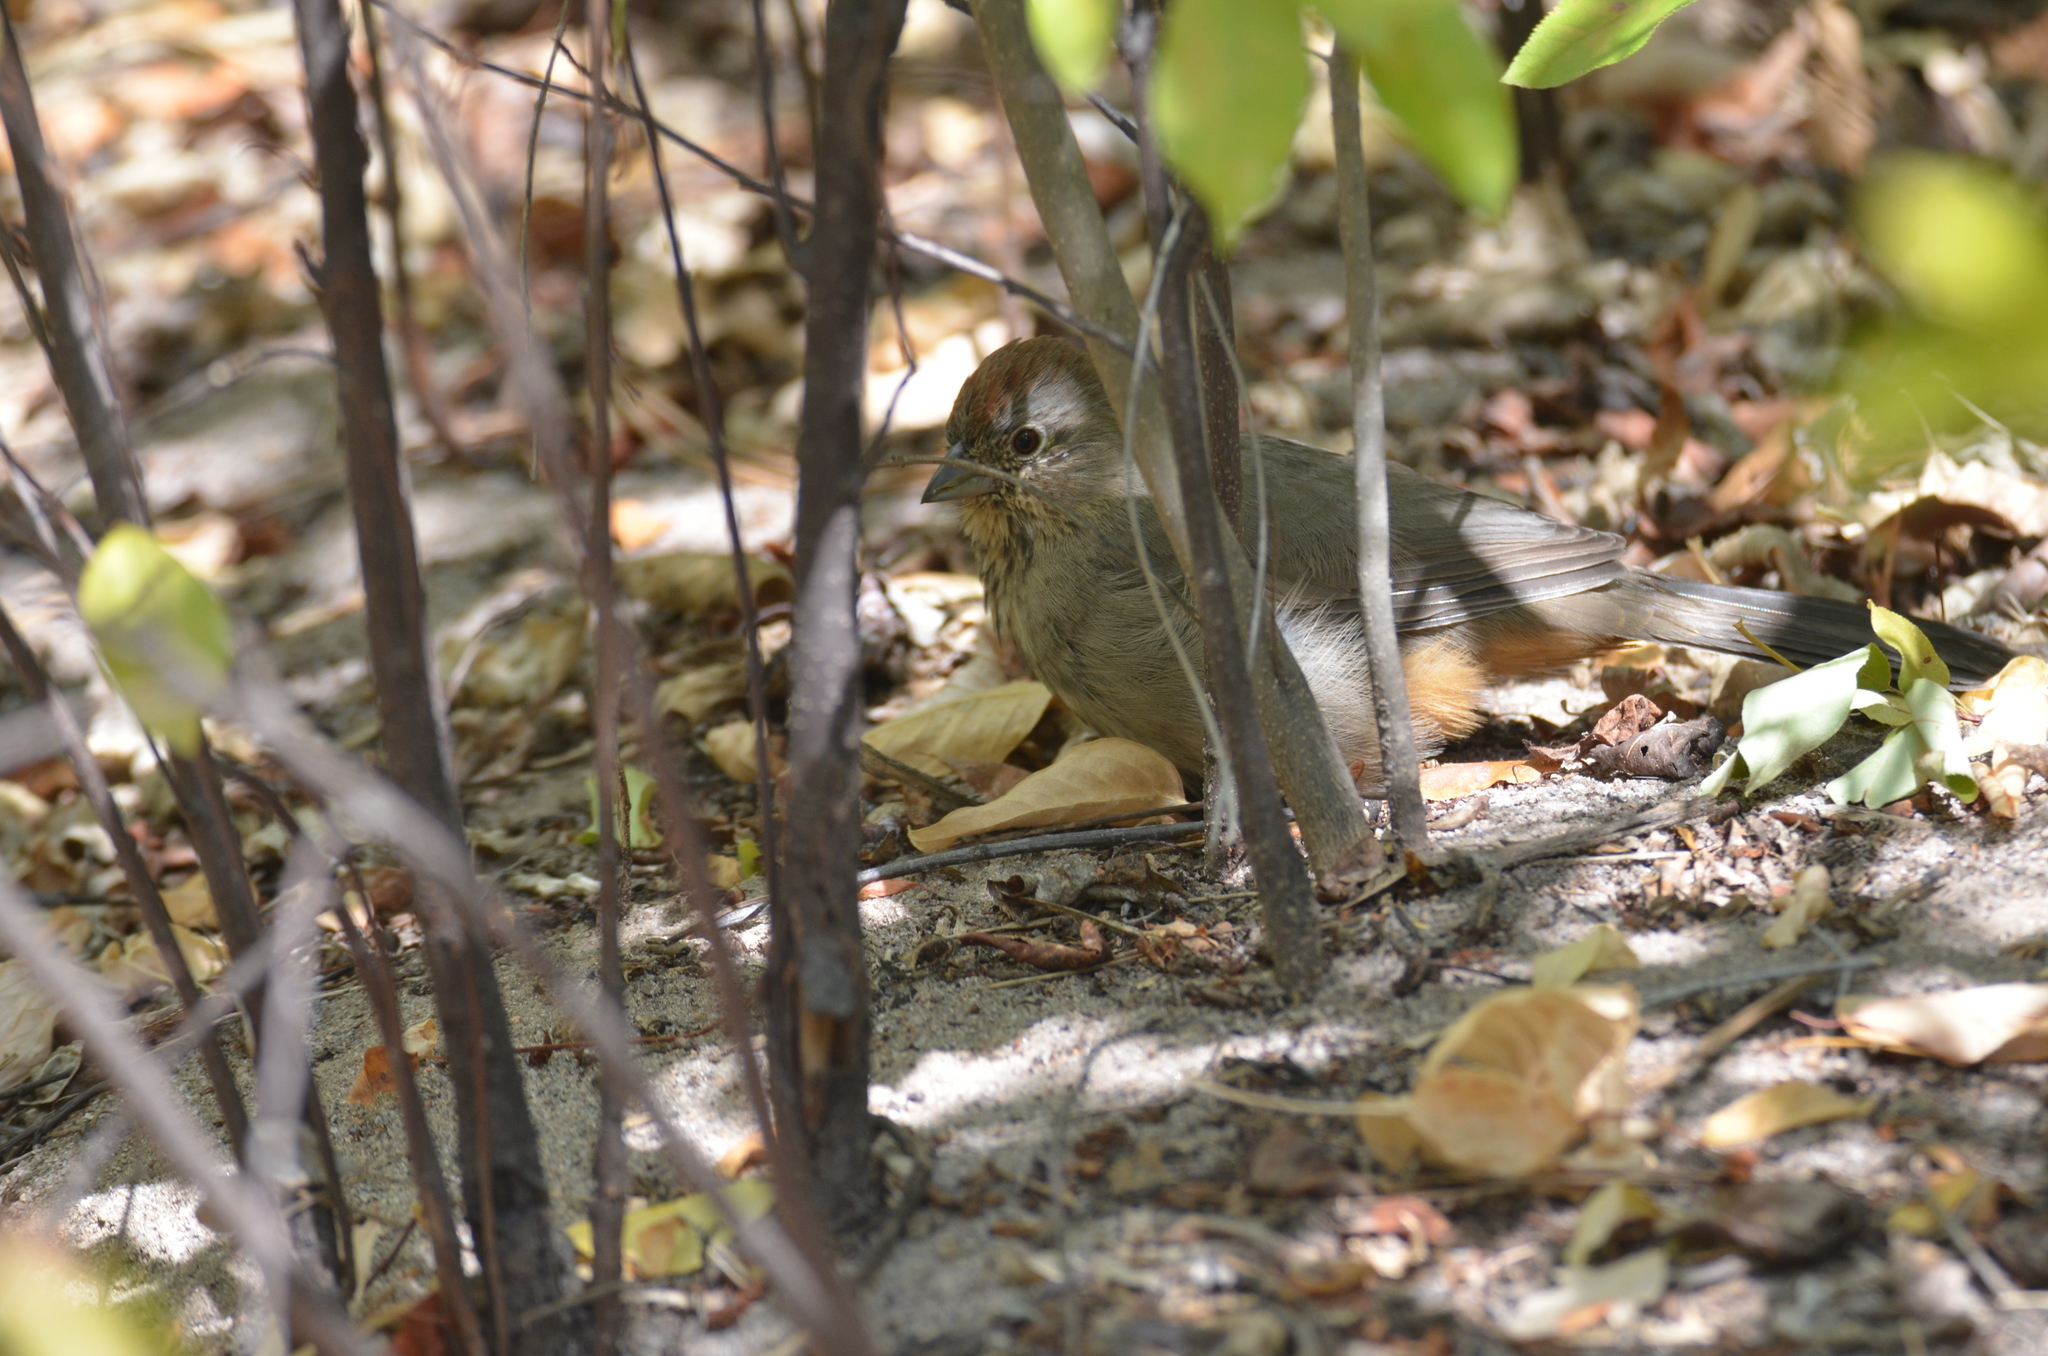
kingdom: Animalia
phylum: Chordata
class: Aves
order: Passeriformes
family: Passerellidae
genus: Melozone
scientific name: Melozone fusca
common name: Canyon towhee
